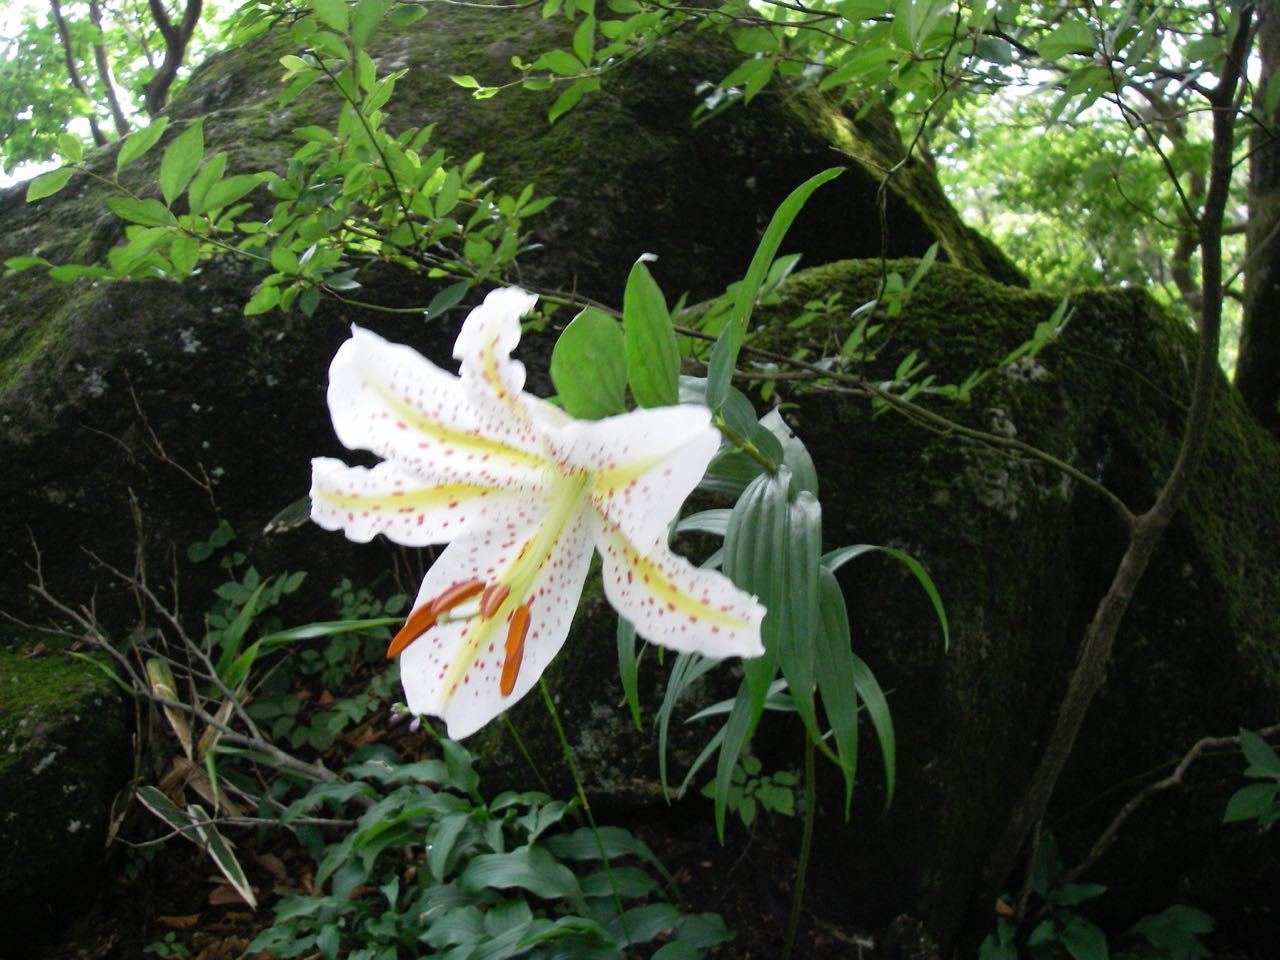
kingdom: Plantae
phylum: Tracheophyta
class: Liliopsida
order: Liliales
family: Liliaceae
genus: Lilium
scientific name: Lilium auratum
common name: Golden-ray lily
